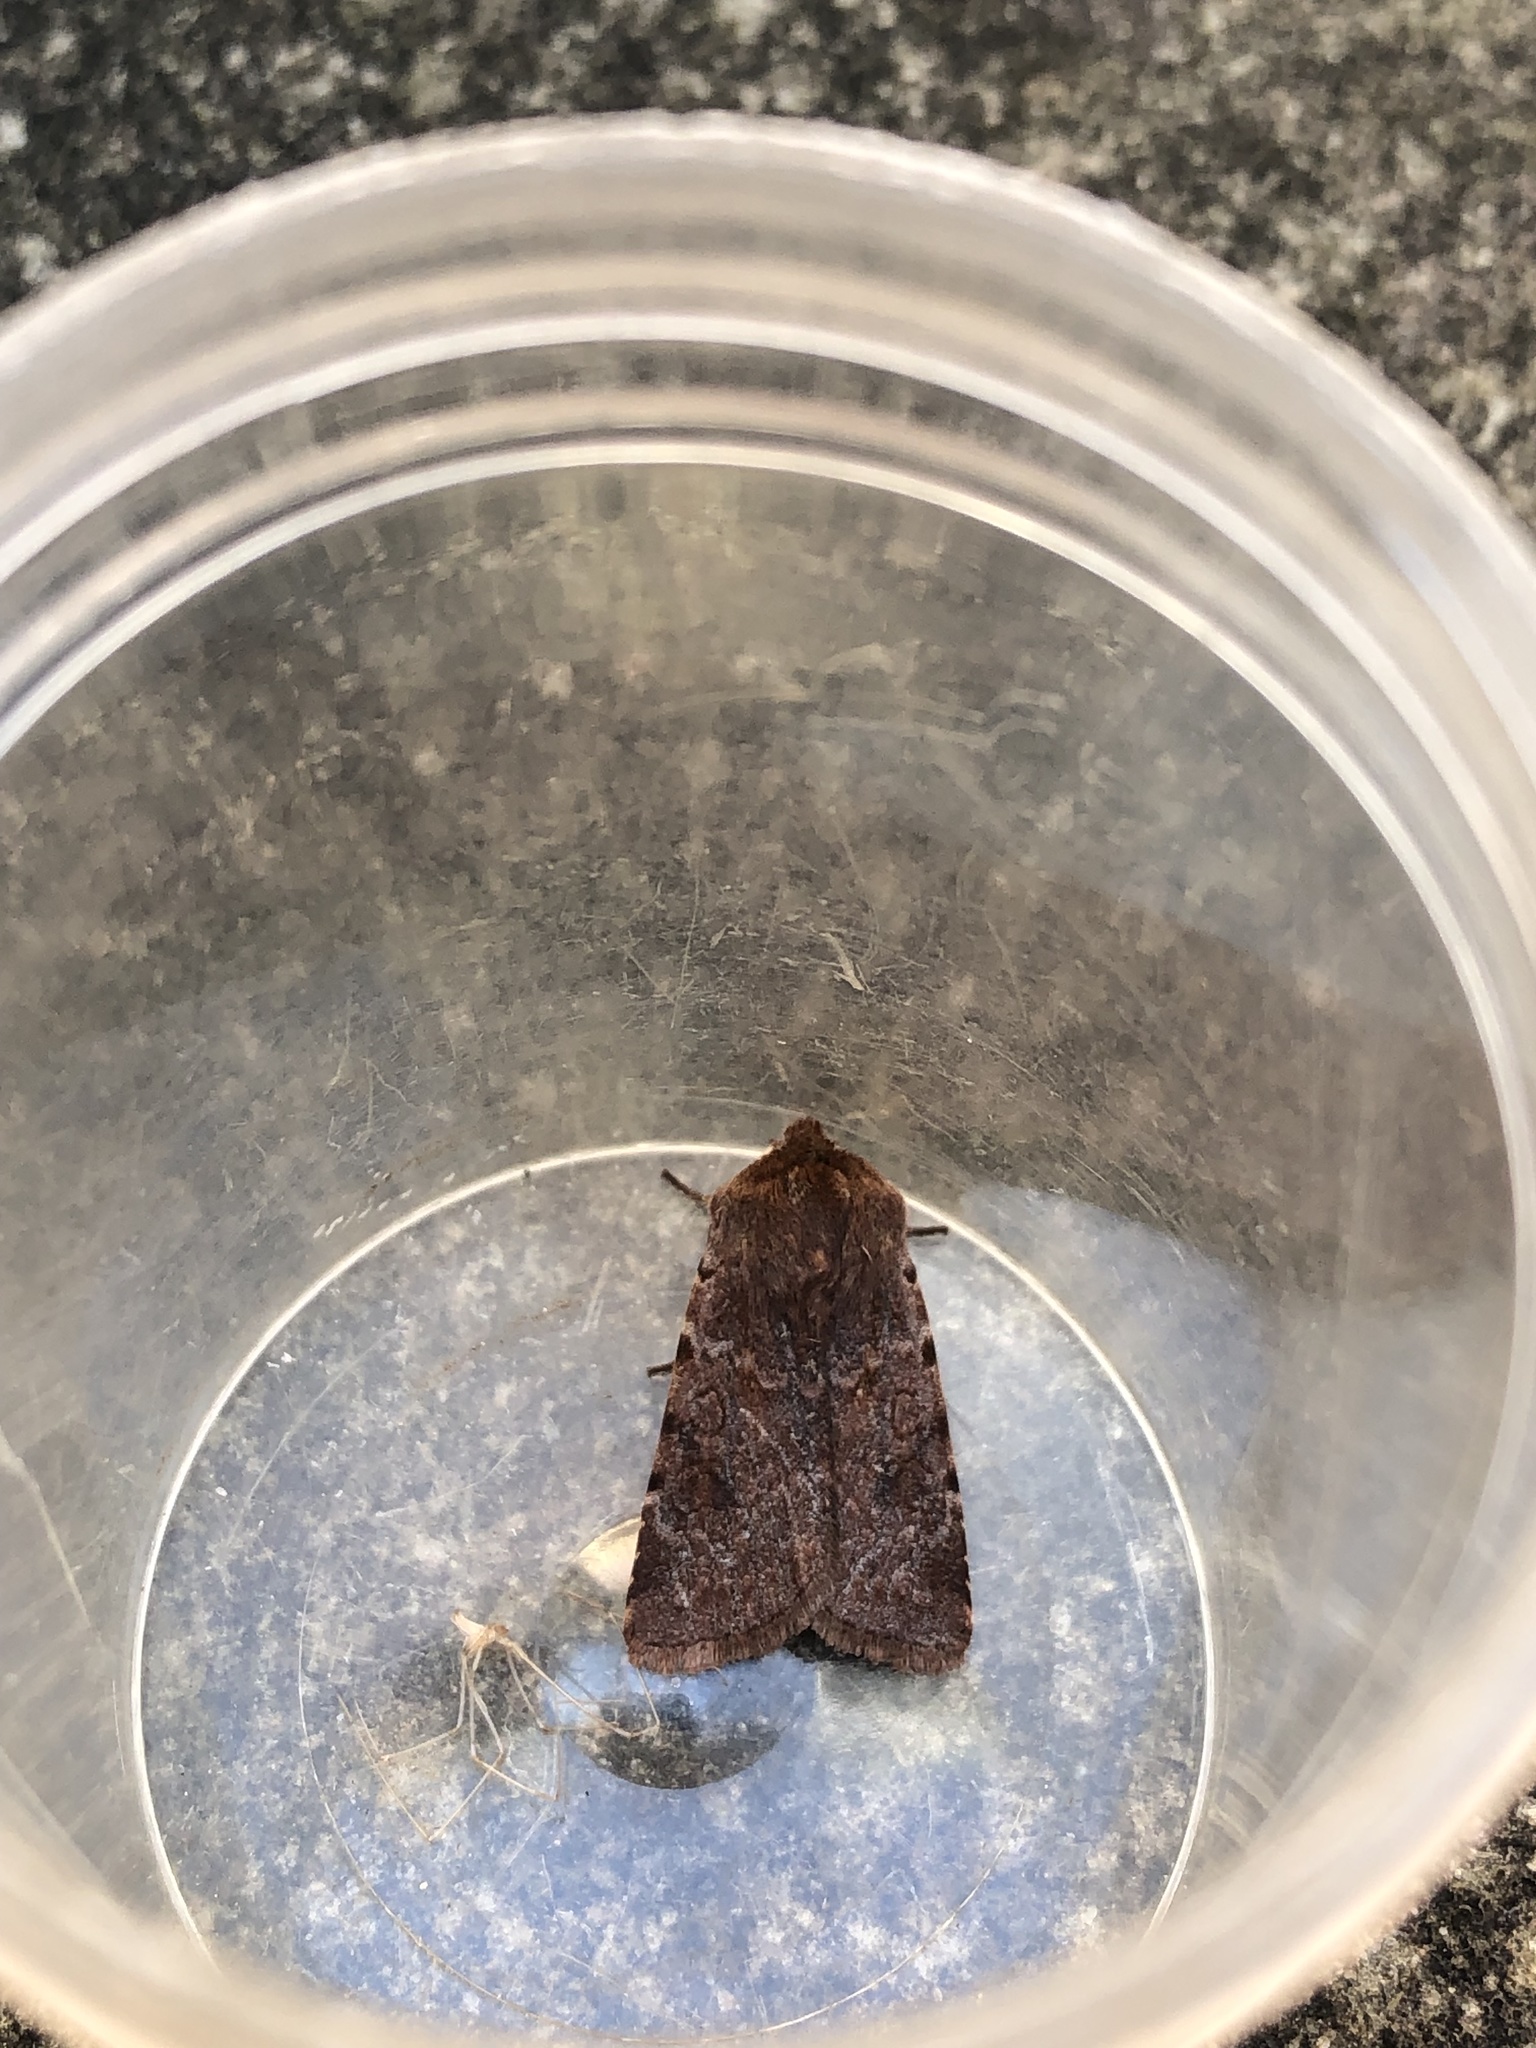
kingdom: Animalia
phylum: Arthropoda
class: Insecta
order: Lepidoptera
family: Noctuidae
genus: Cerastis
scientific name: Cerastis rubricosa
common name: Red chestnut
